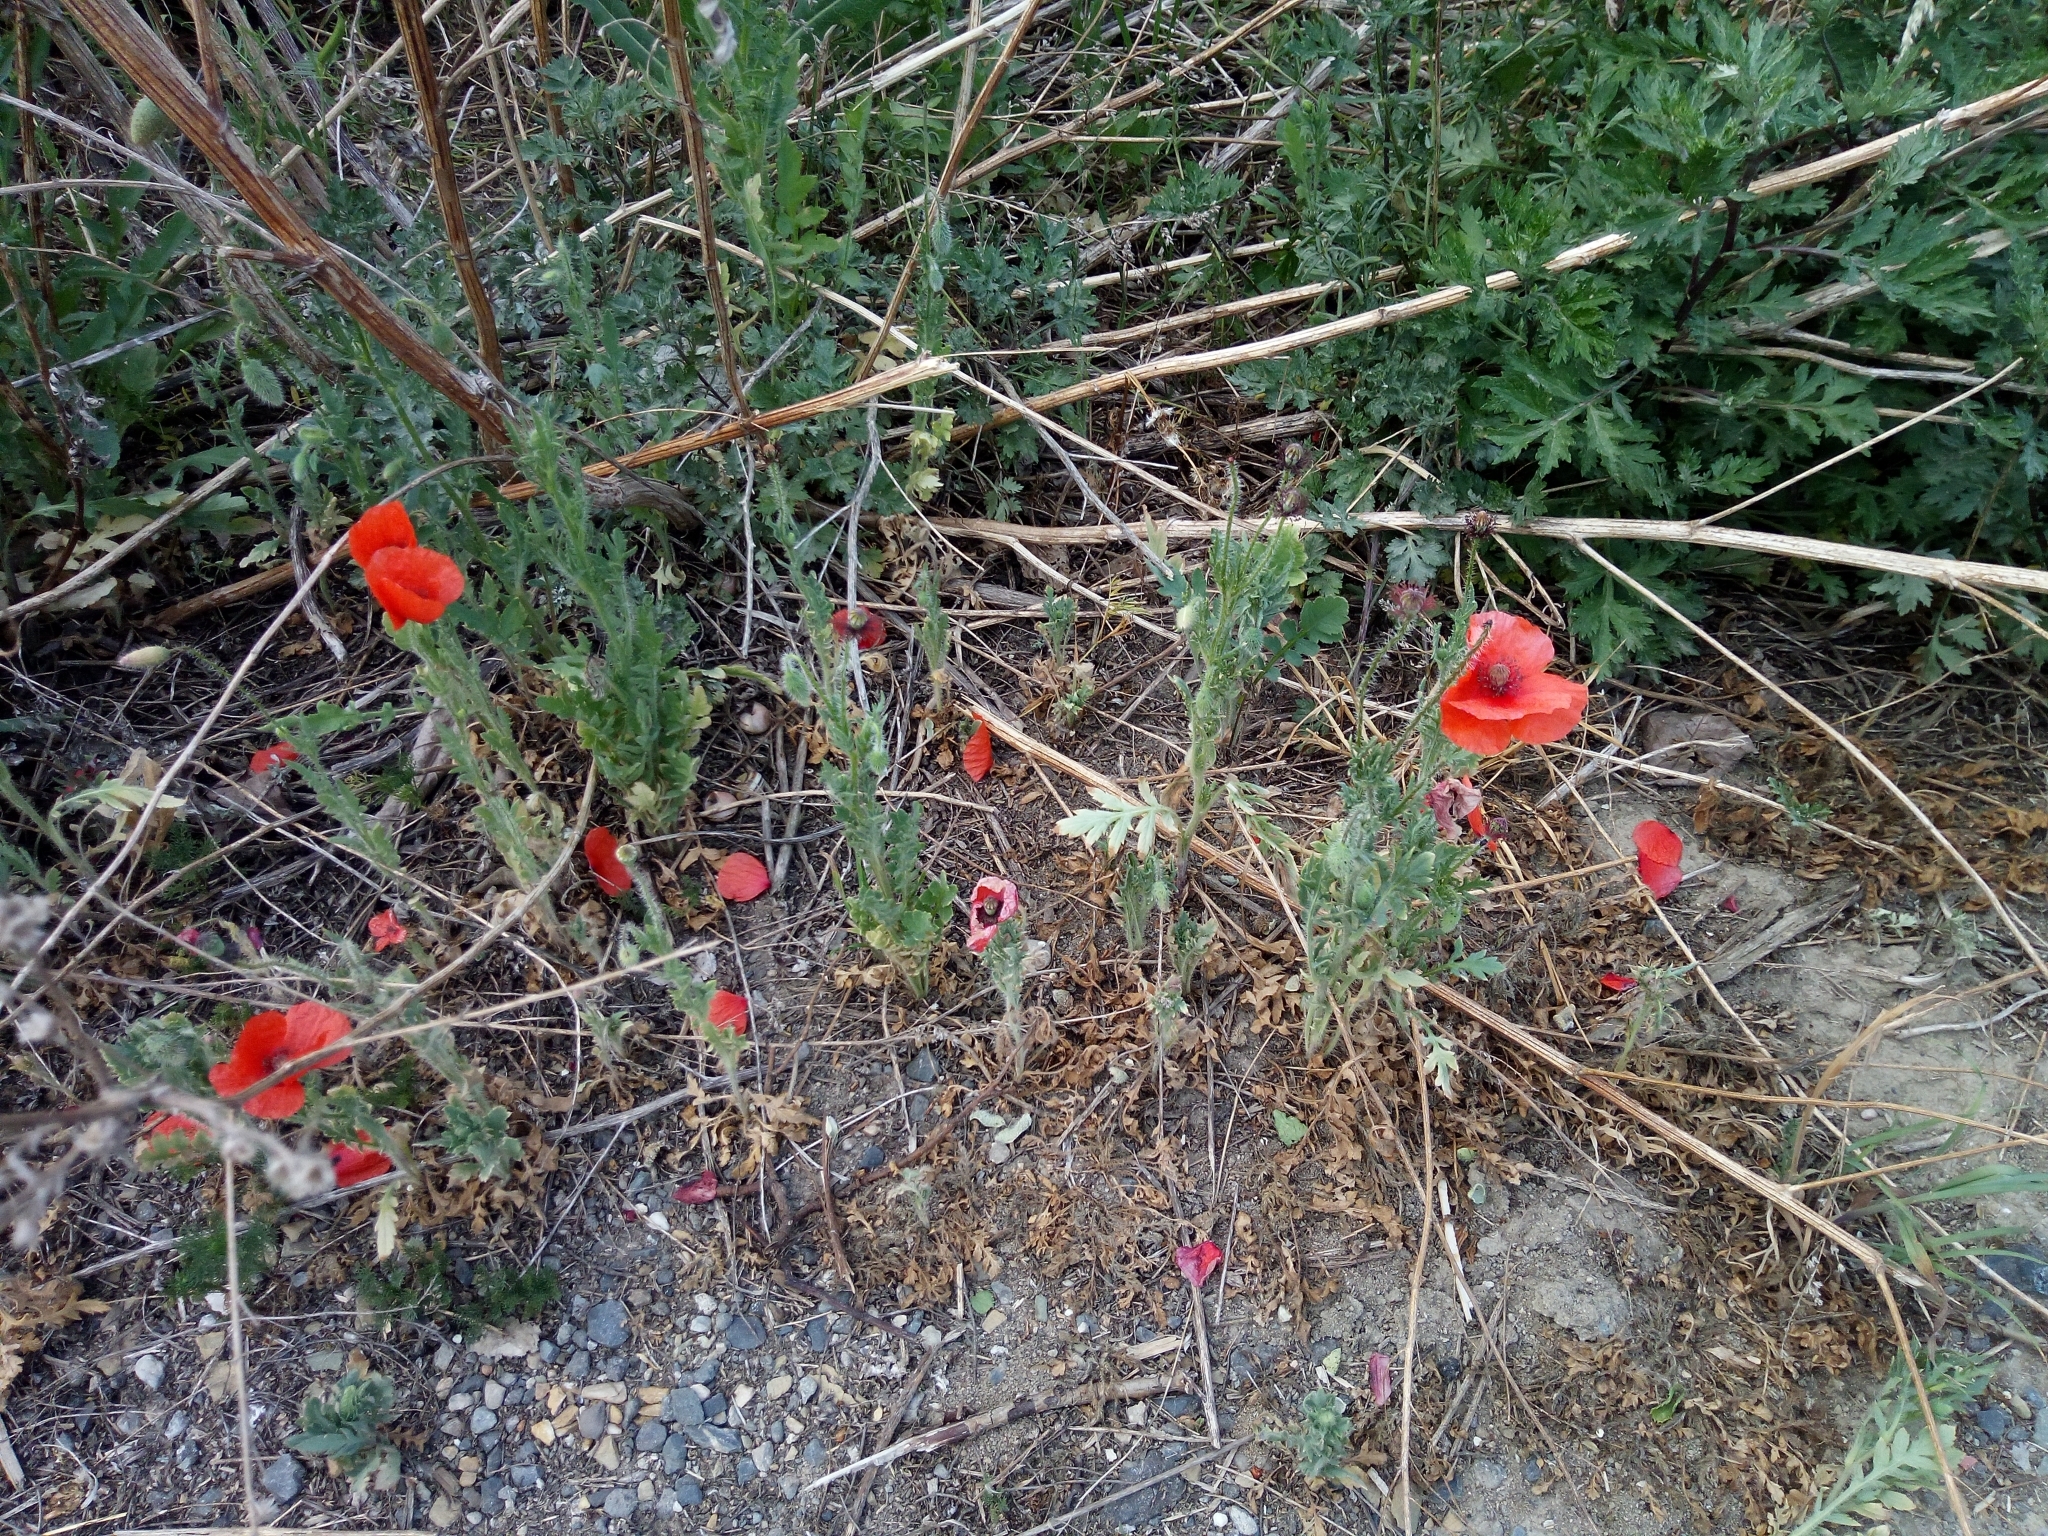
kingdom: Plantae
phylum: Tracheophyta
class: Magnoliopsida
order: Ranunculales
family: Papaveraceae
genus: Papaver
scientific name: Papaver rhoeas
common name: Corn poppy
